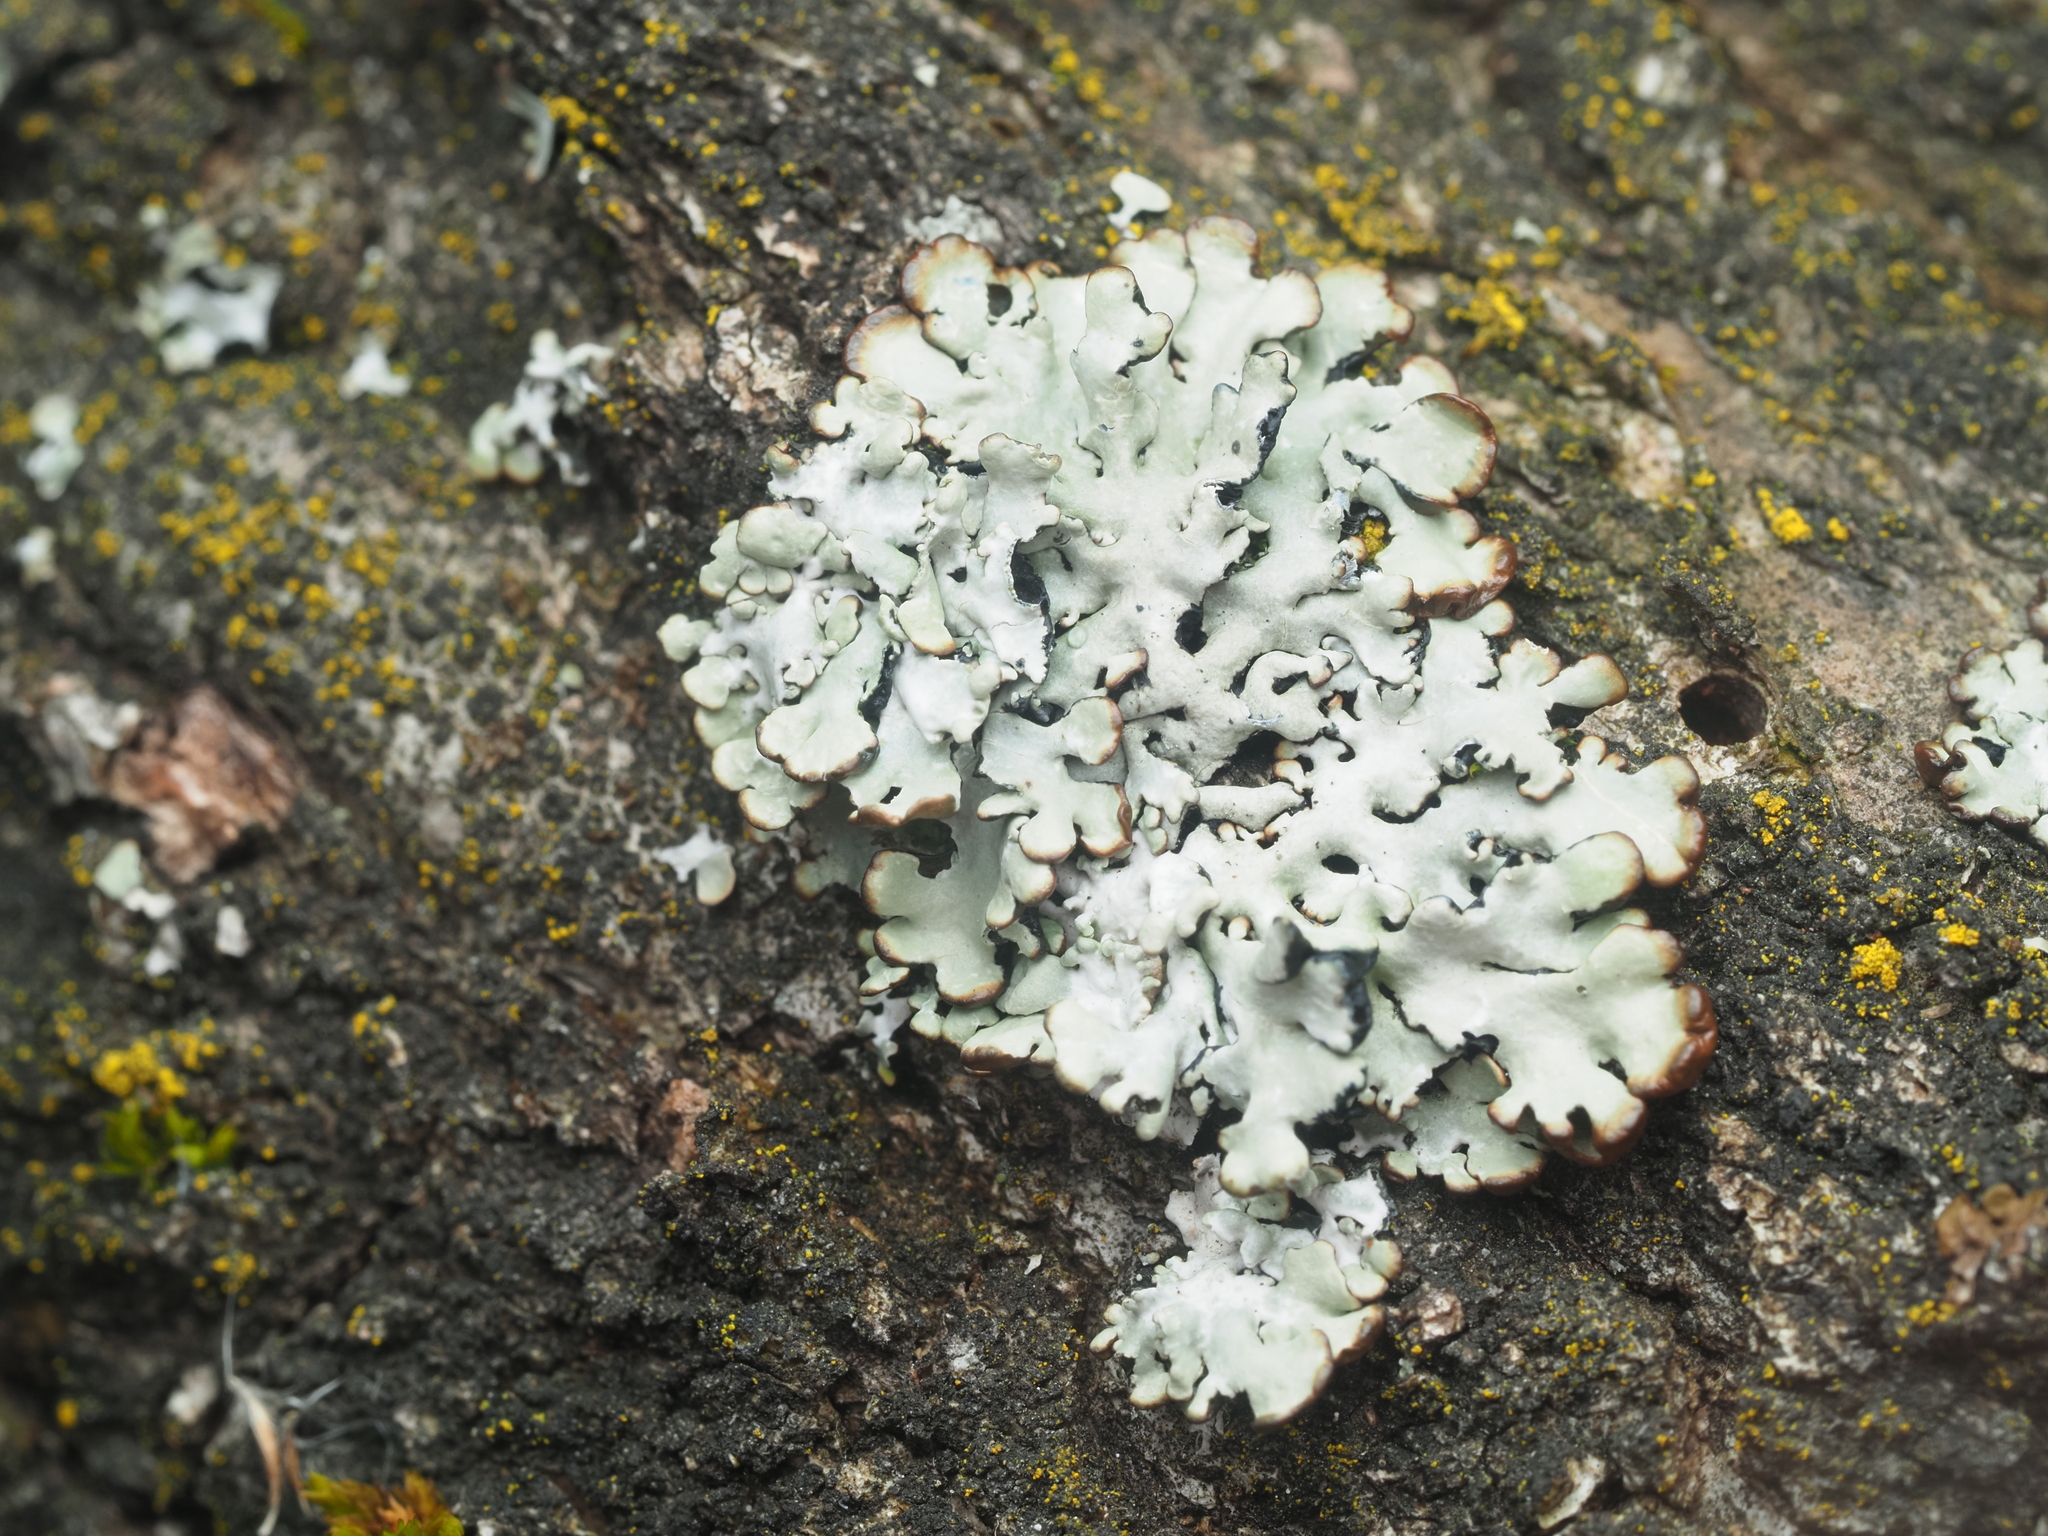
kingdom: Fungi
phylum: Ascomycota
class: Lecanoromycetes
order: Lecanorales
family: Parmeliaceae
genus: Hypogymnia
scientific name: Hypogymnia physodes
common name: Dark crottle
